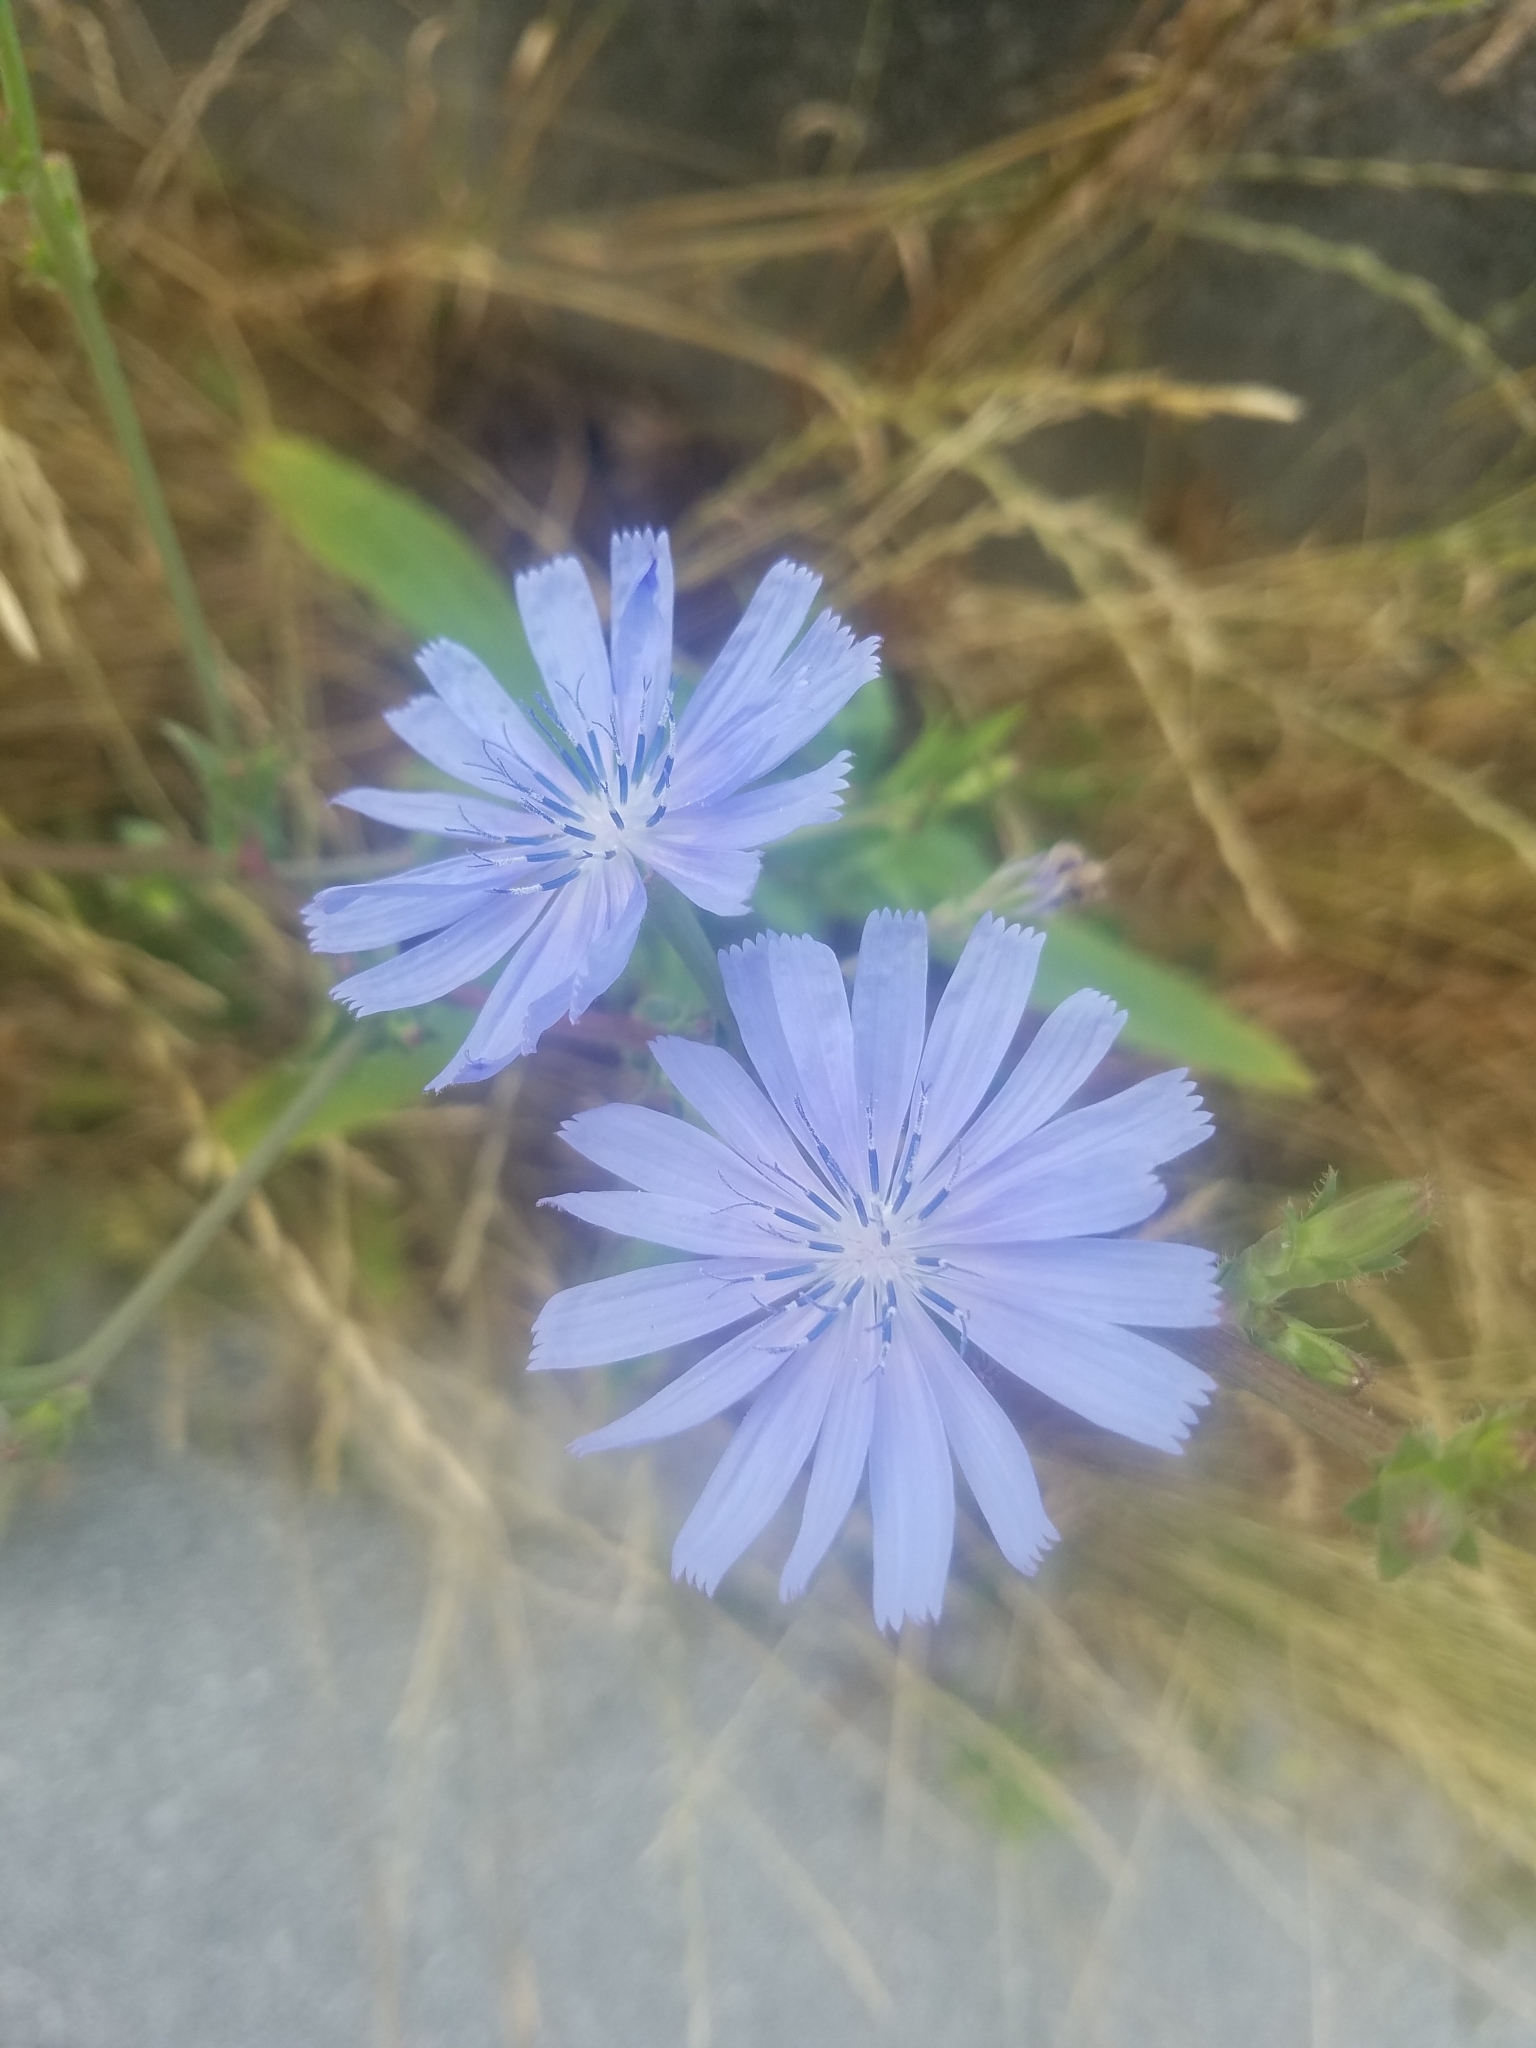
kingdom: Plantae
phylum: Tracheophyta
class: Magnoliopsida
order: Asterales
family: Asteraceae
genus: Cichorium
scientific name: Cichorium intybus
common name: Chicory
